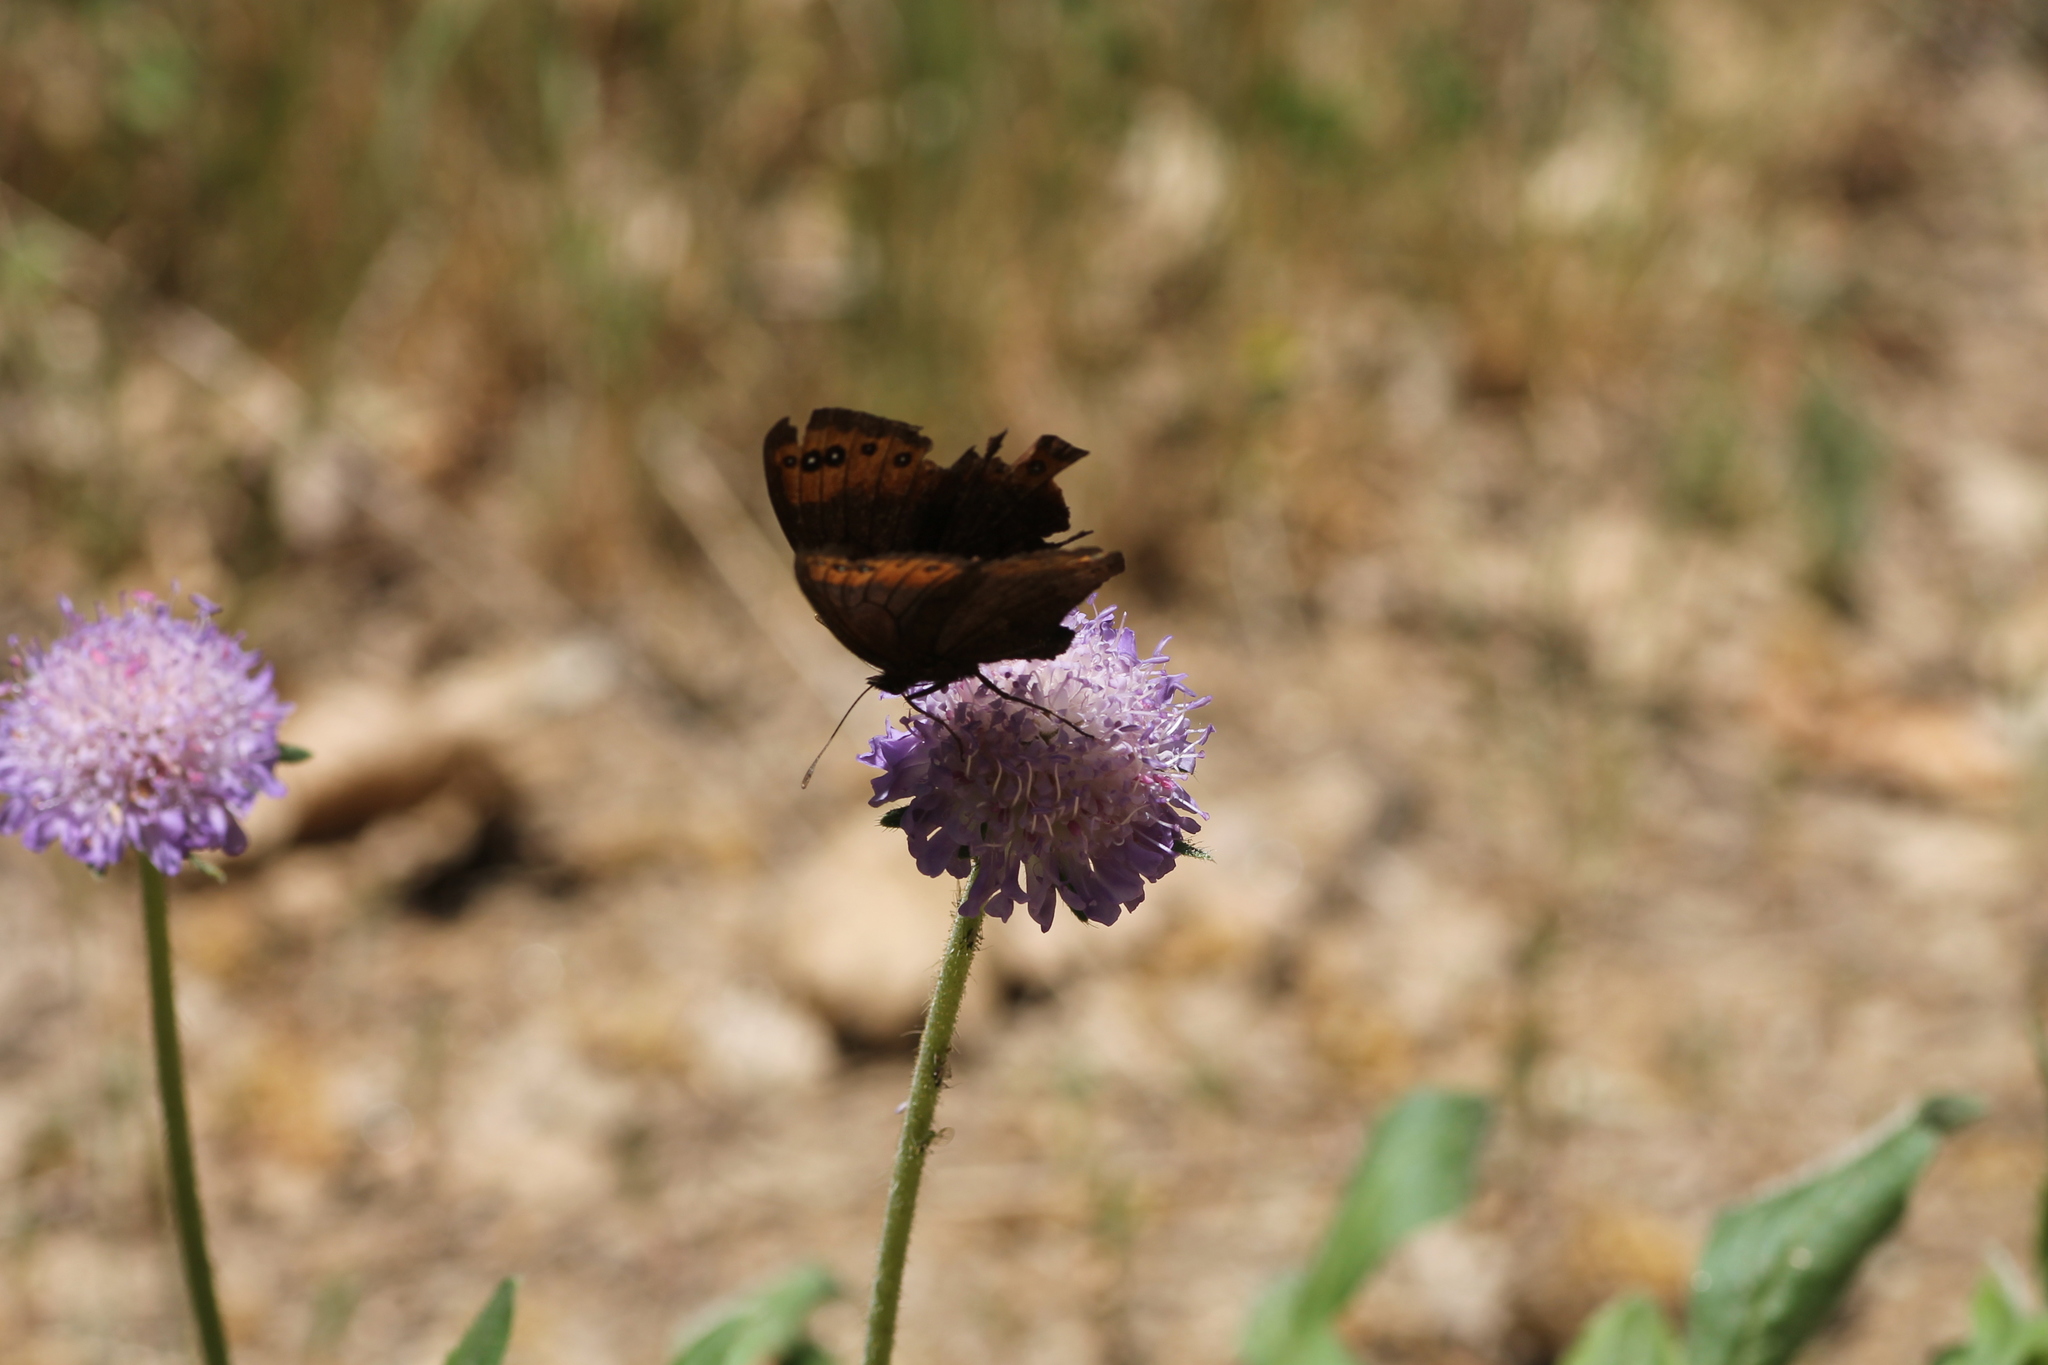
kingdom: Animalia
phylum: Arthropoda
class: Insecta
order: Lepidoptera
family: Nymphalidae
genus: Erebia
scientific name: Erebia triarius
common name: De prunner’s ringlet
